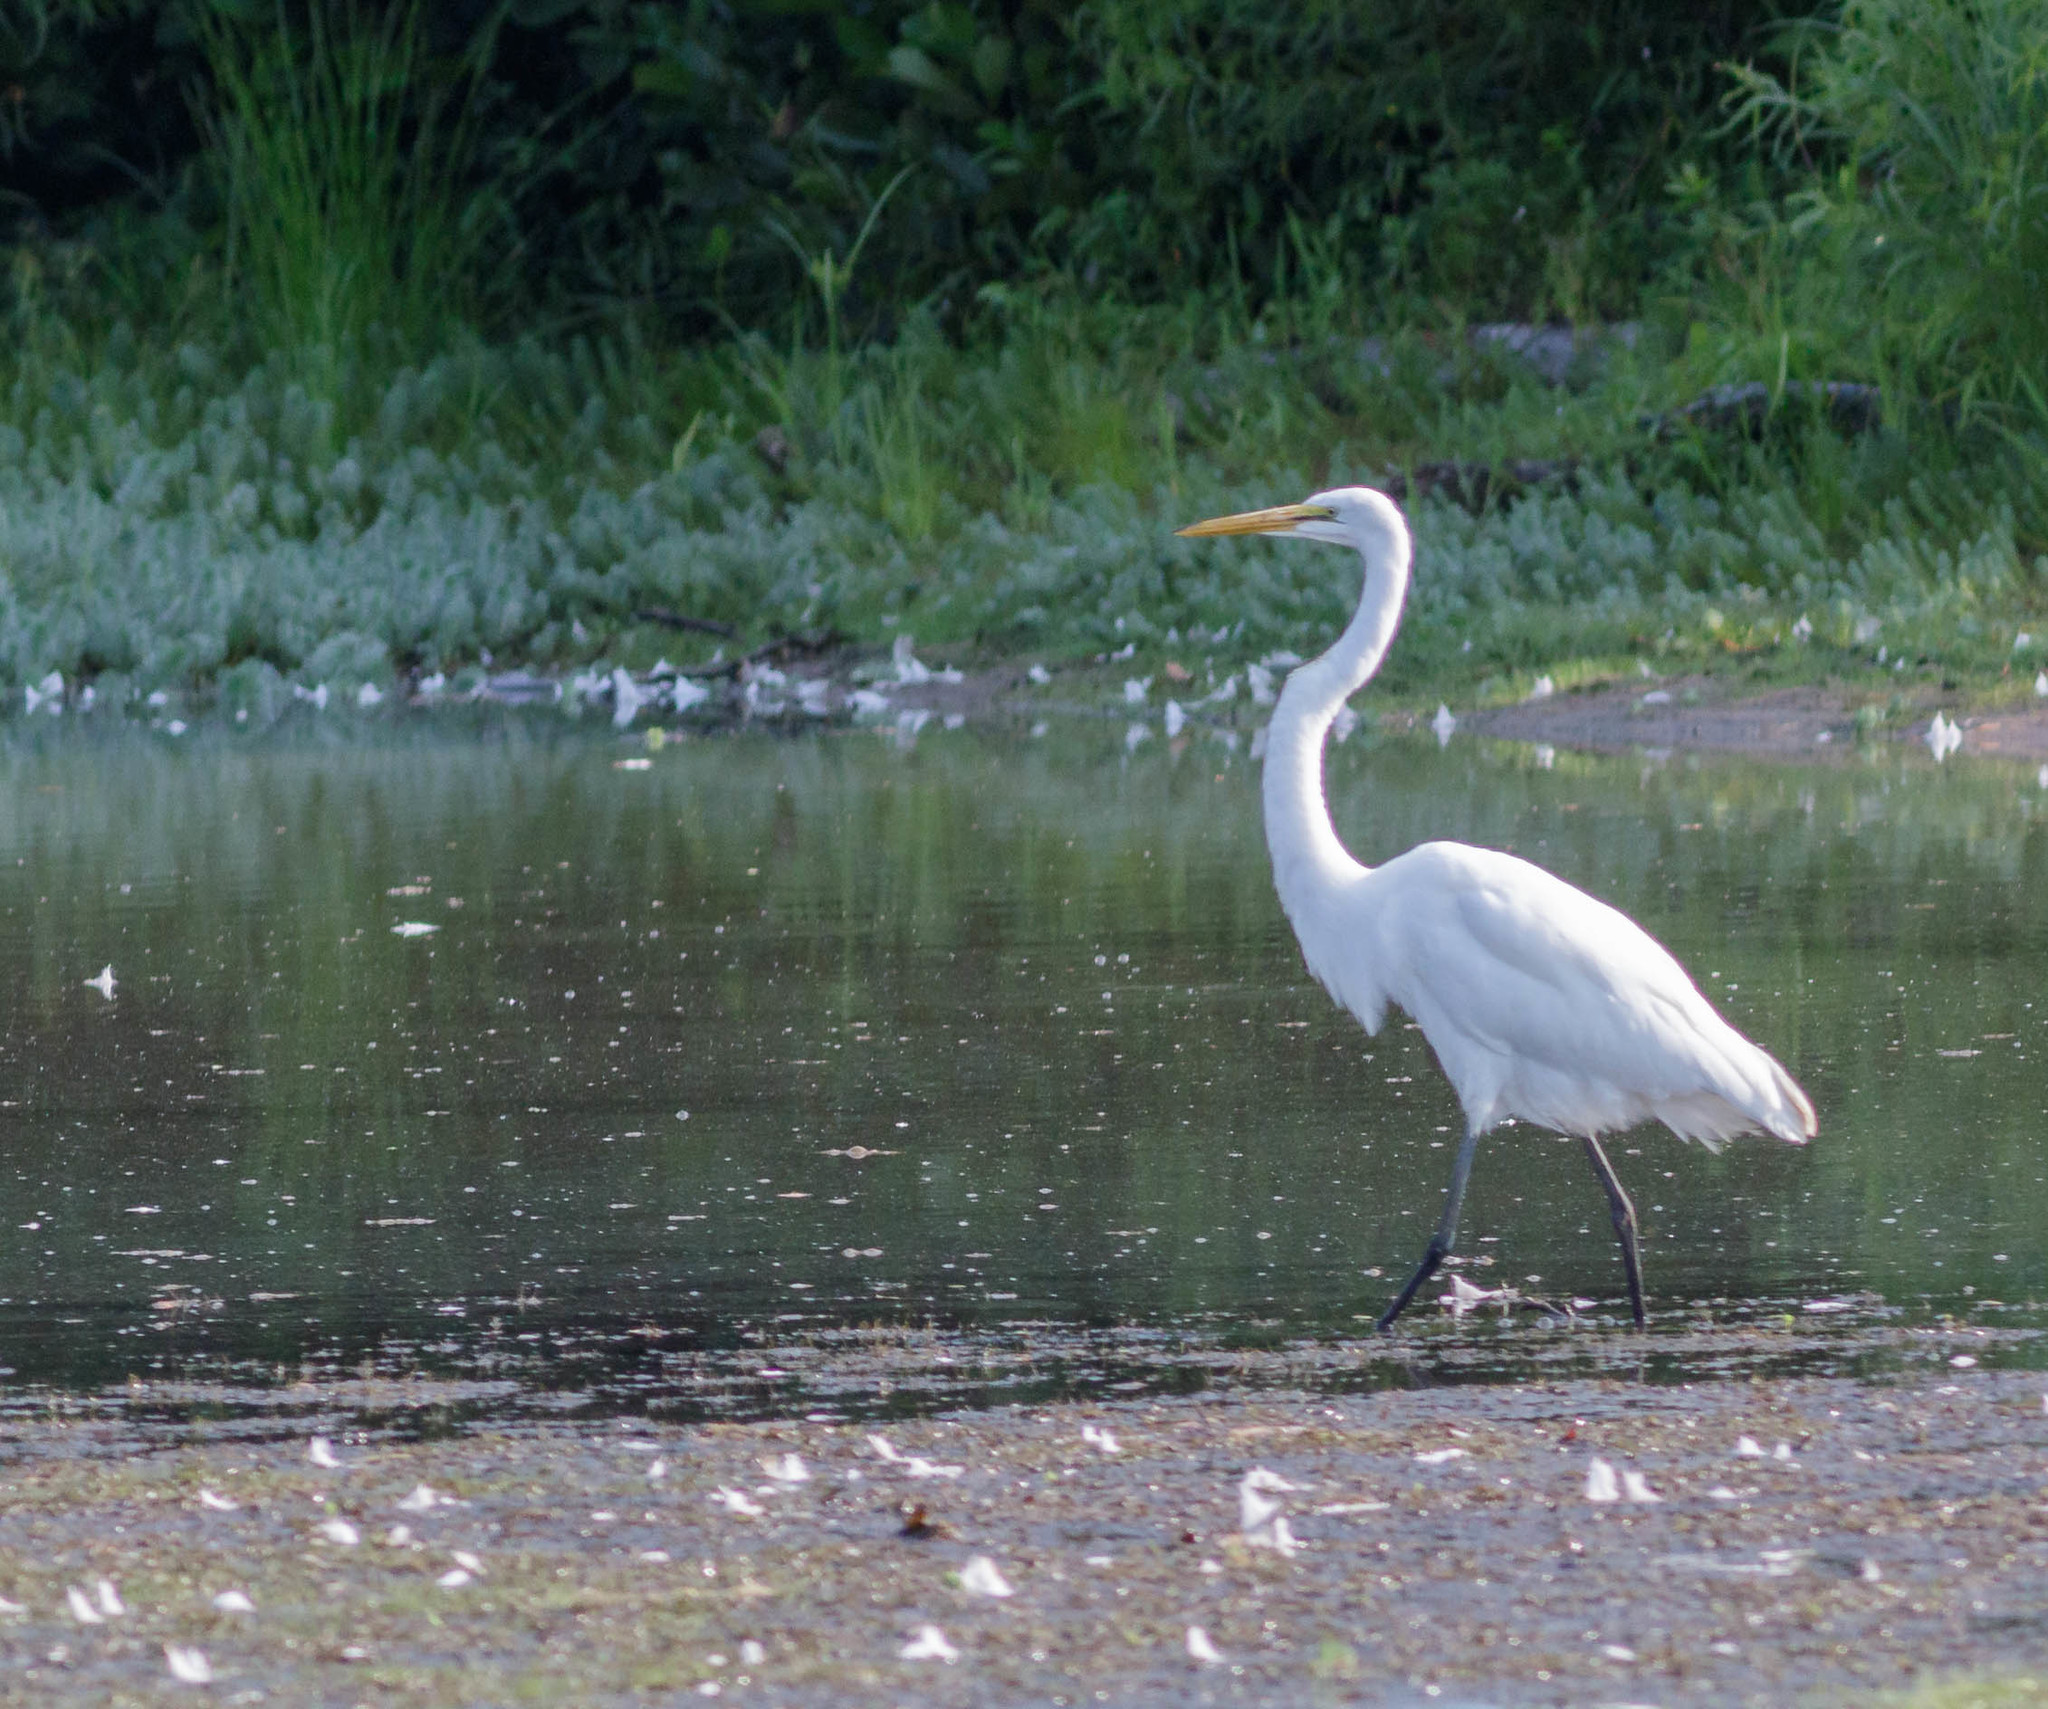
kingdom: Animalia
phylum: Chordata
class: Aves
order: Pelecaniformes
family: Ardeidae
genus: Ardea
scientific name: Ardea alba
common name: Great egret
